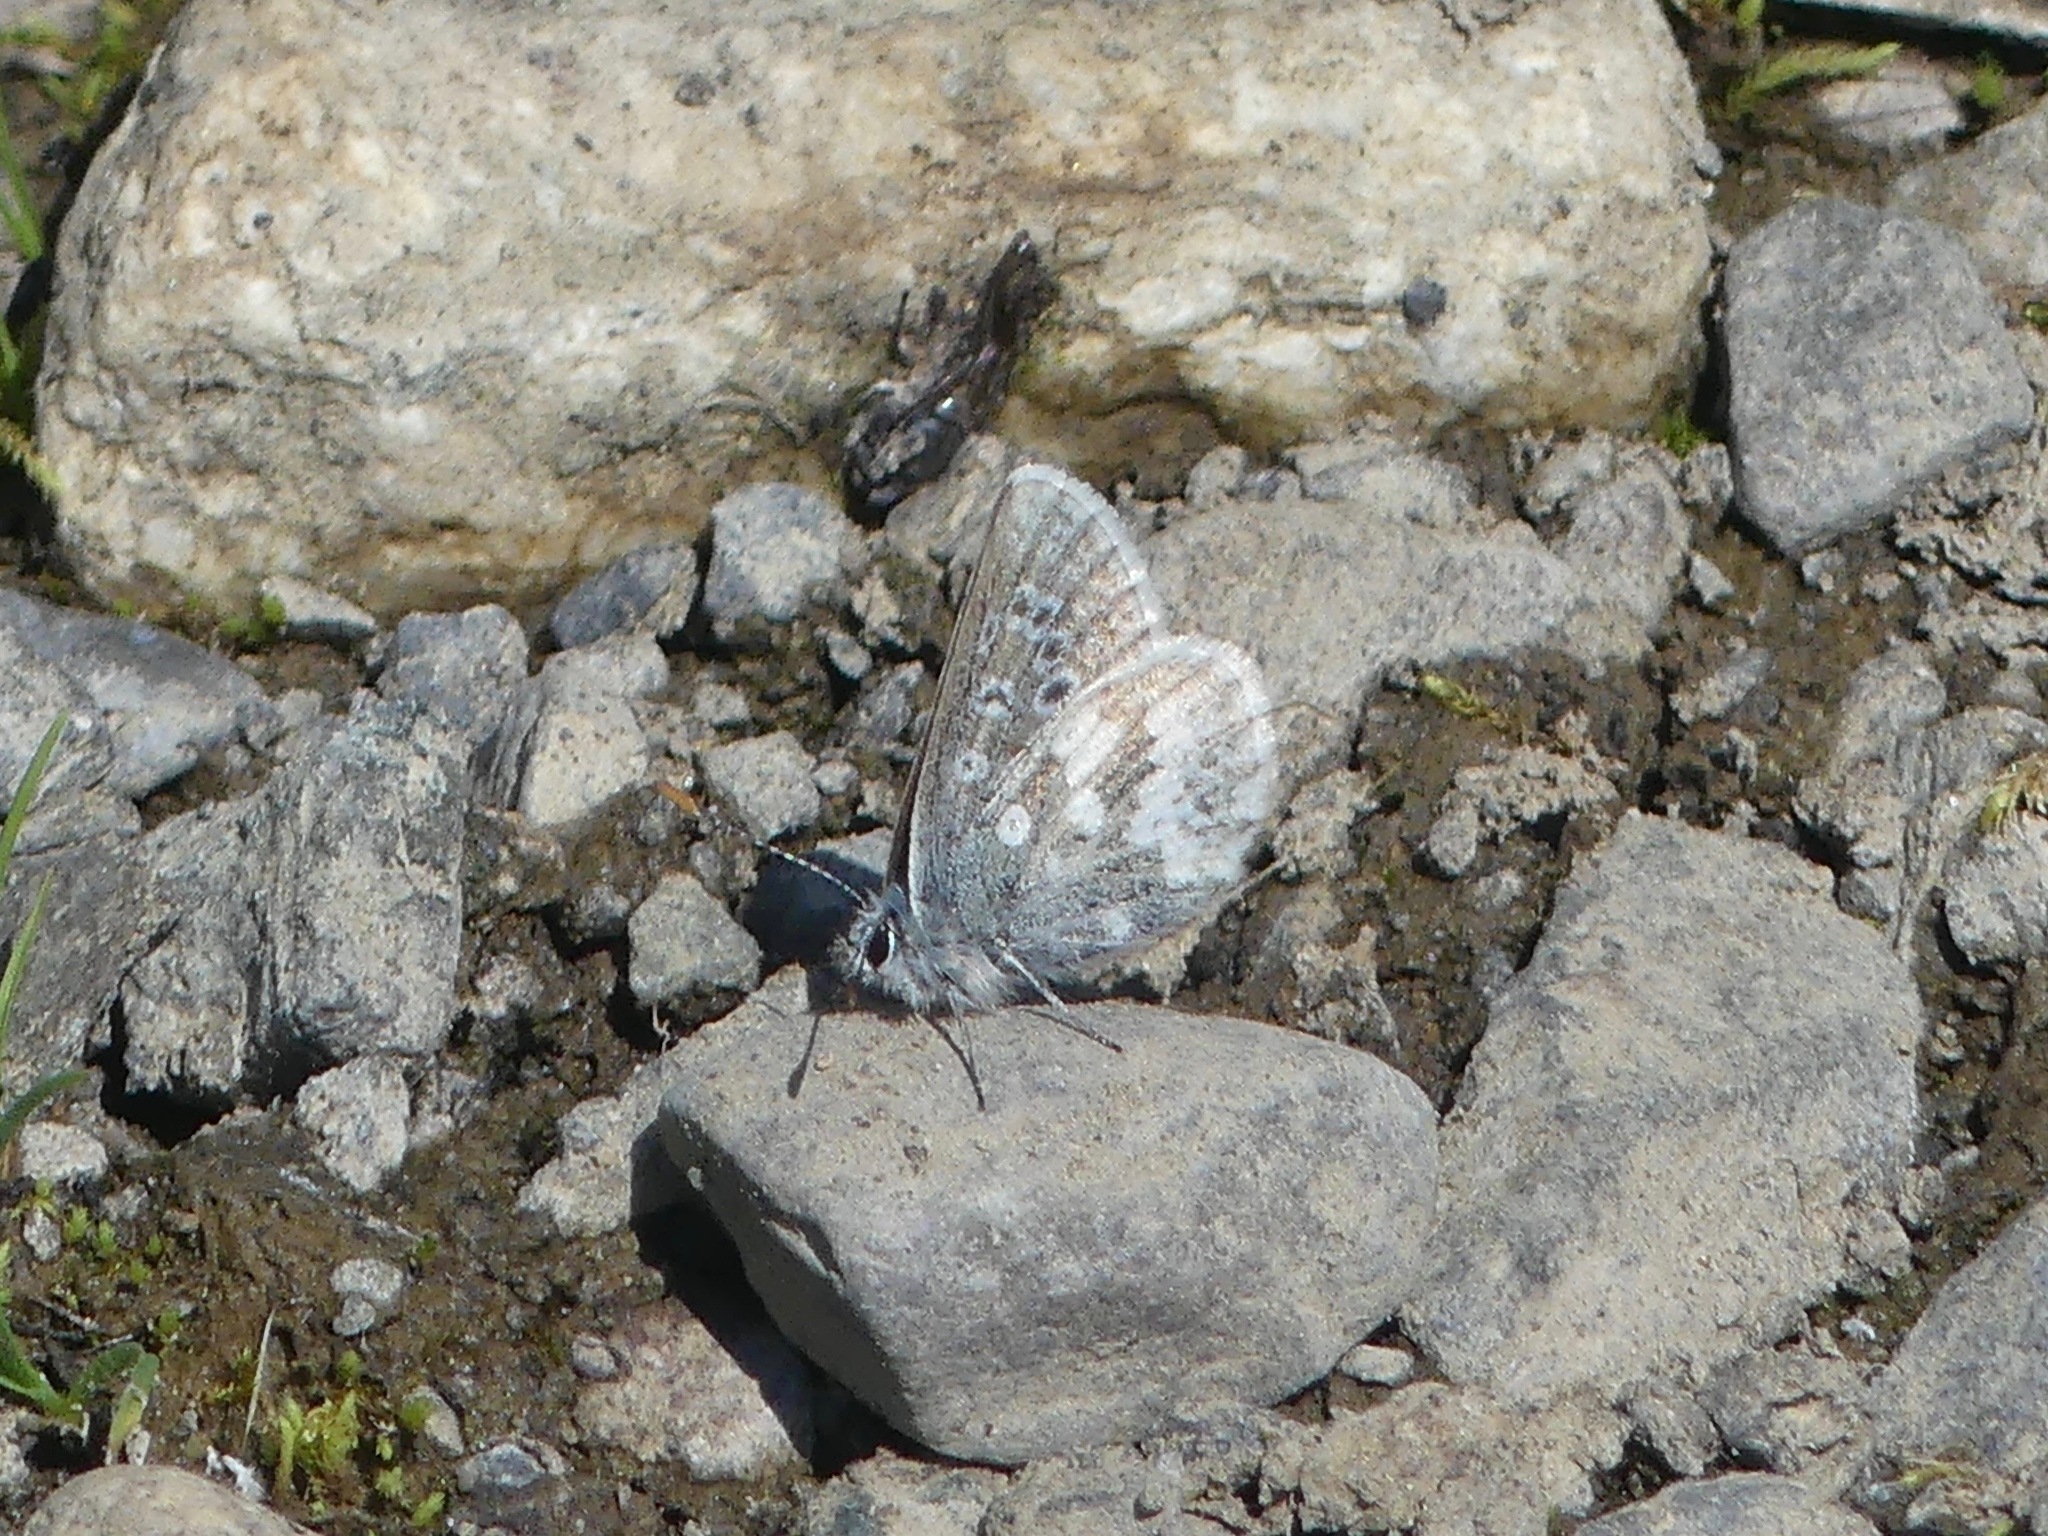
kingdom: Animalia
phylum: Arthropoda
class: Insecta
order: Lepidoptera
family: Lycaenidae
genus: Agriades
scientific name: Agriades glandon
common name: Glandon blue
